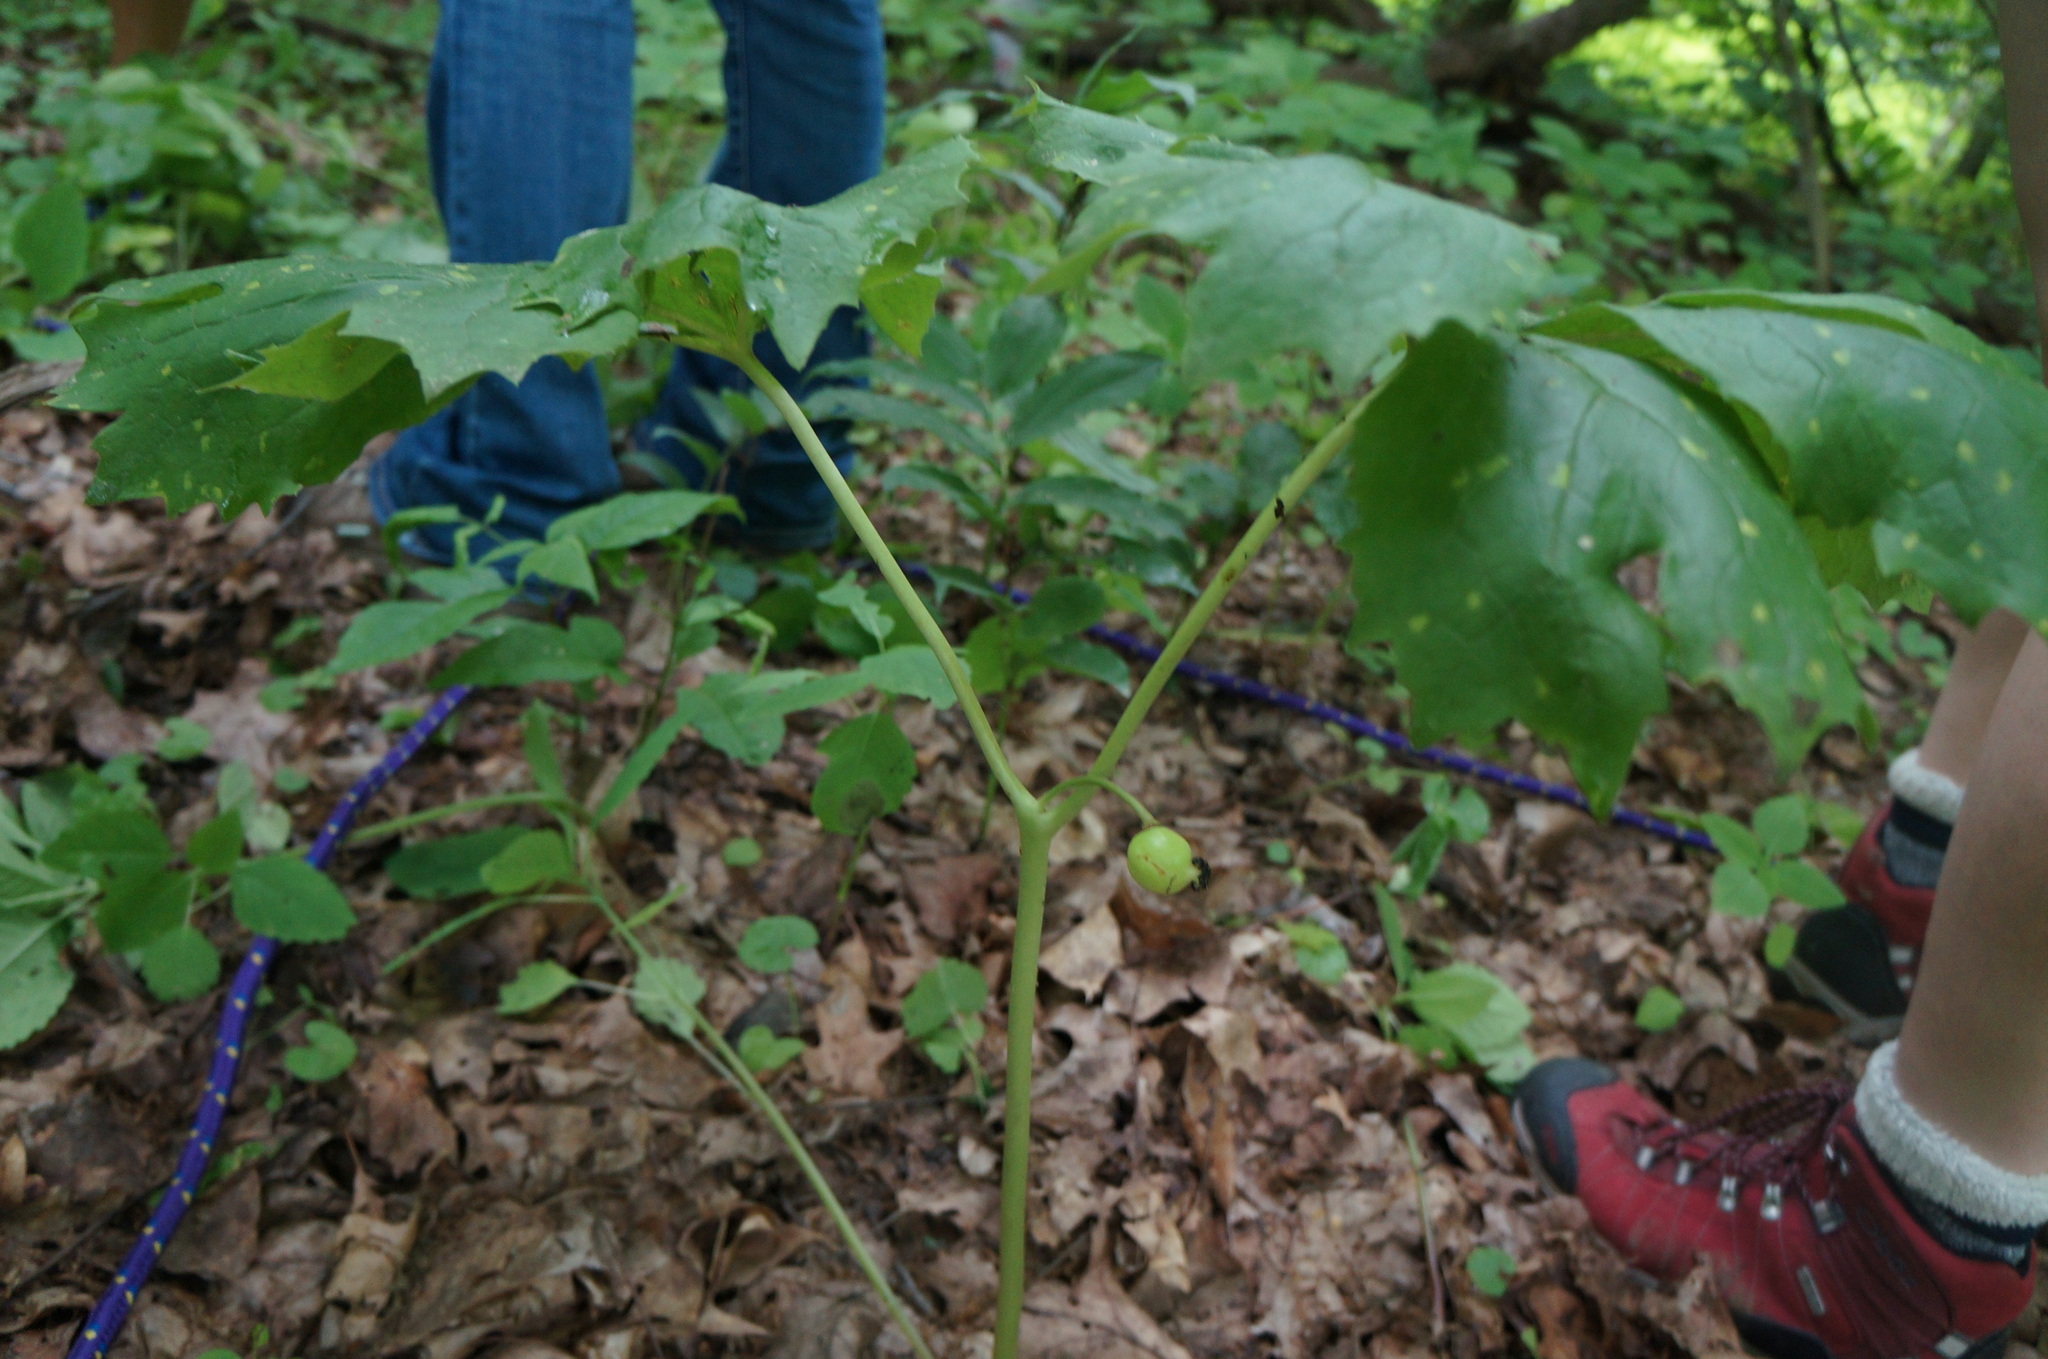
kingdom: Plantae
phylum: Tracheophyta
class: Magnoliopsida
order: Ranunculales
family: Berberidaceae
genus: Podophyllum
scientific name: Podophyllum peltatum
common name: Wild mandrake
